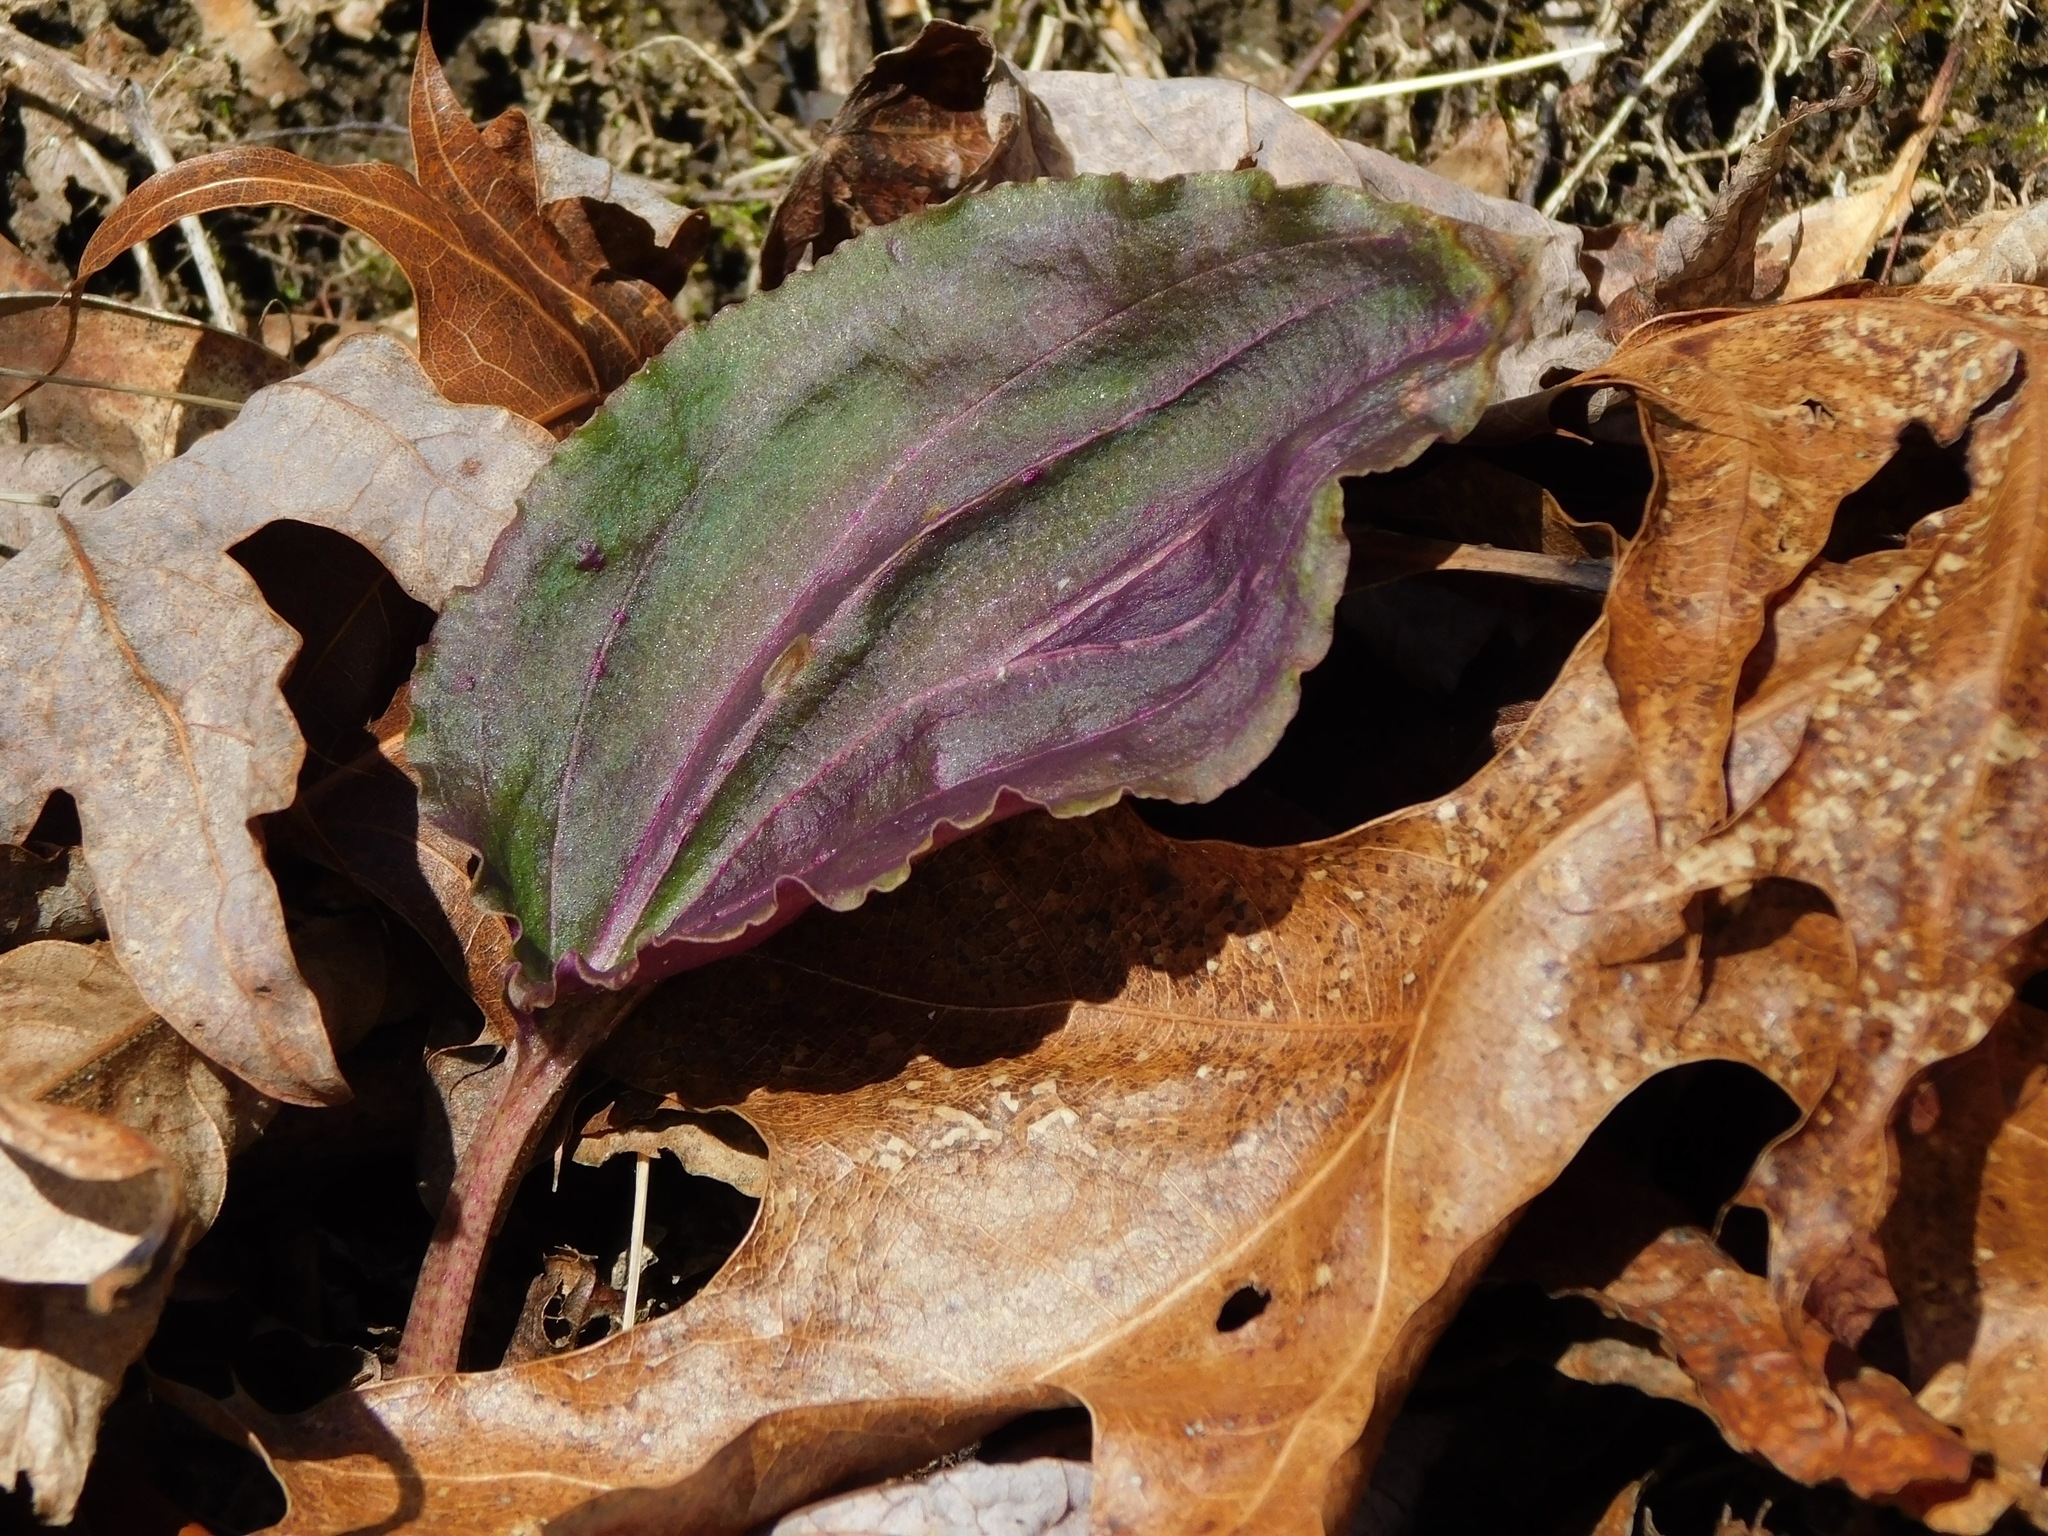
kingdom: Plantae
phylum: Tracheophyta
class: Liliopsida
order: Asparagales
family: Orchidaceae
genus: Tipularia
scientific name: Tipularia discolor
